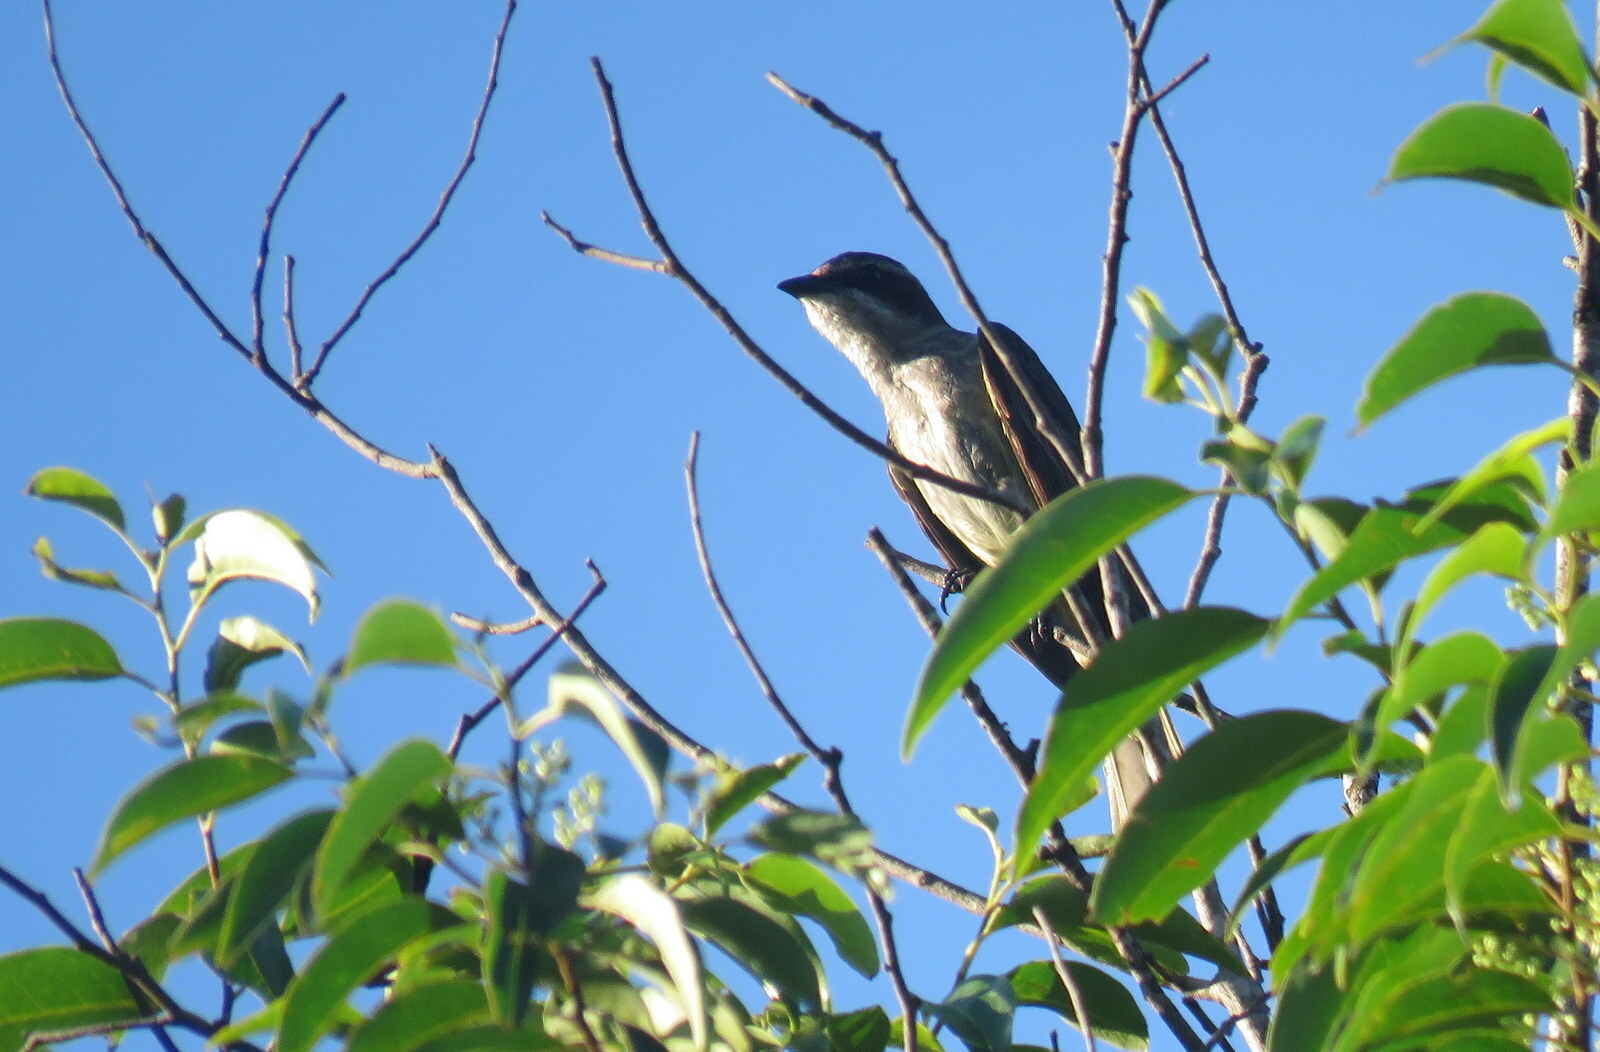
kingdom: Animalia
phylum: Chordata
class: Aves
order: Passeriformes
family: Tyrannidae
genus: Legatus
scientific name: Legatus leucophaius
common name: Piratic flycatcher
